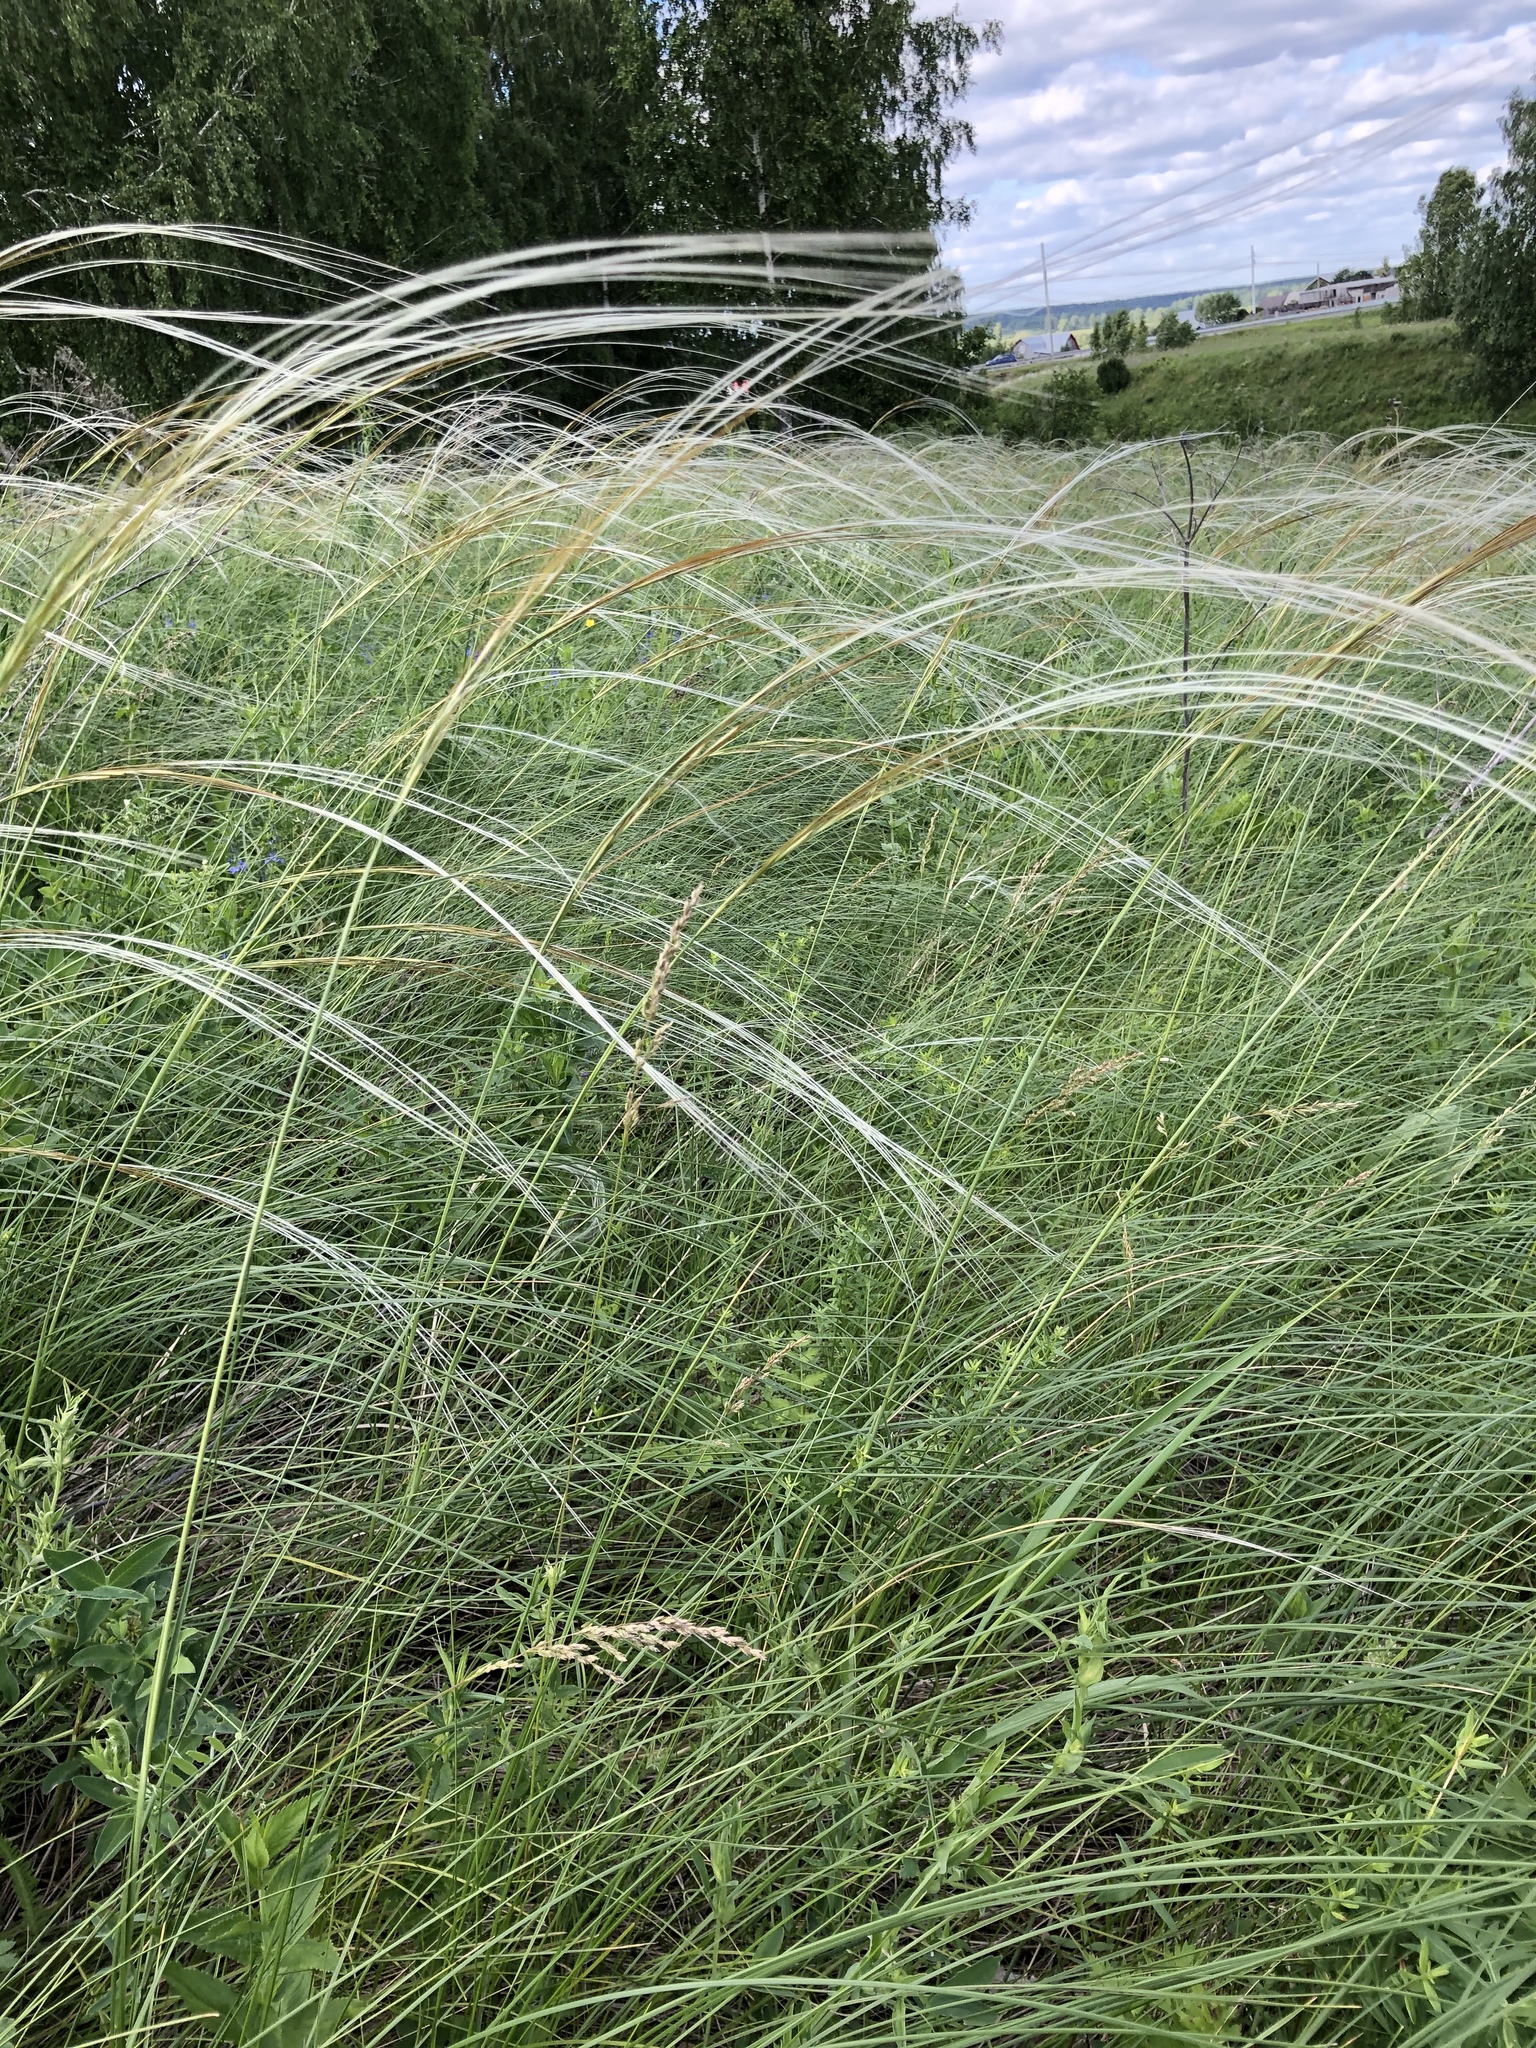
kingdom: Plantae
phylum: Tracheophyta
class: Liliopsida
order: Poales
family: Poaceae
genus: Stipa
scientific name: Stipa pennata
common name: European feather grass
